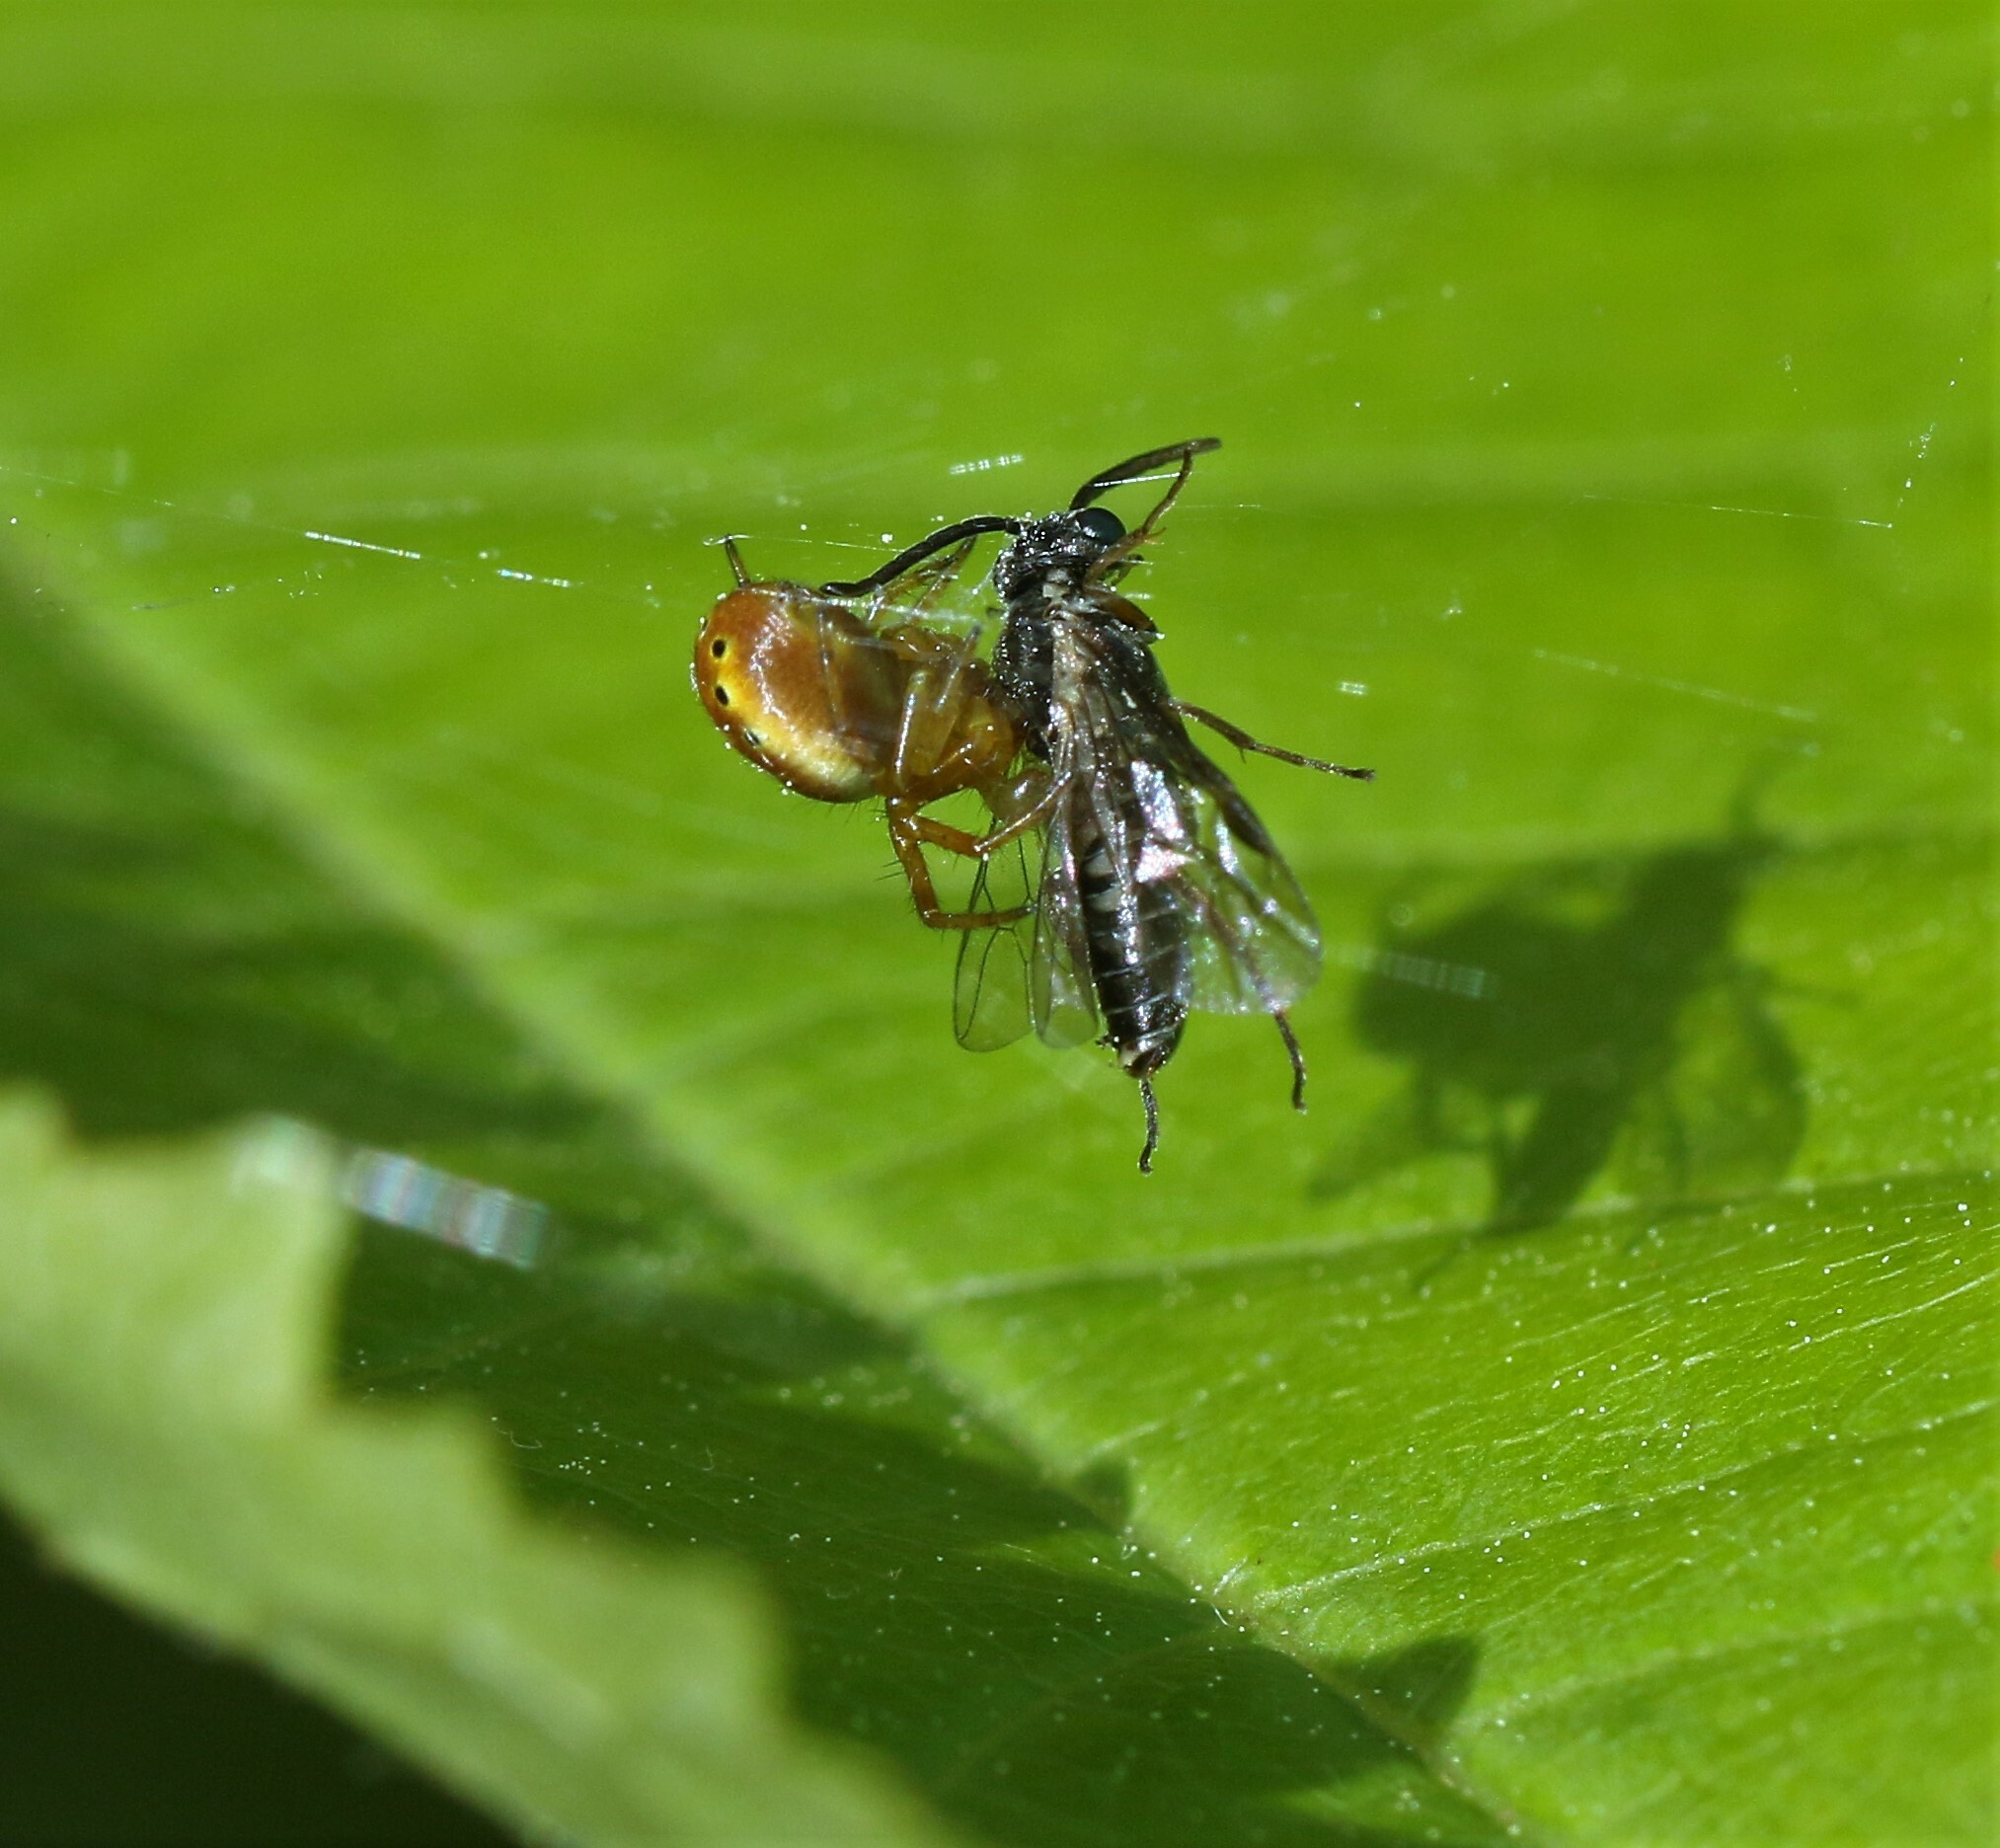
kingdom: Animalia
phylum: Arthropoda
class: Arachnida
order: Araneae
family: Araneidae
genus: Araniella
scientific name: Araniella displicata
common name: Sixspotted orb weaver
